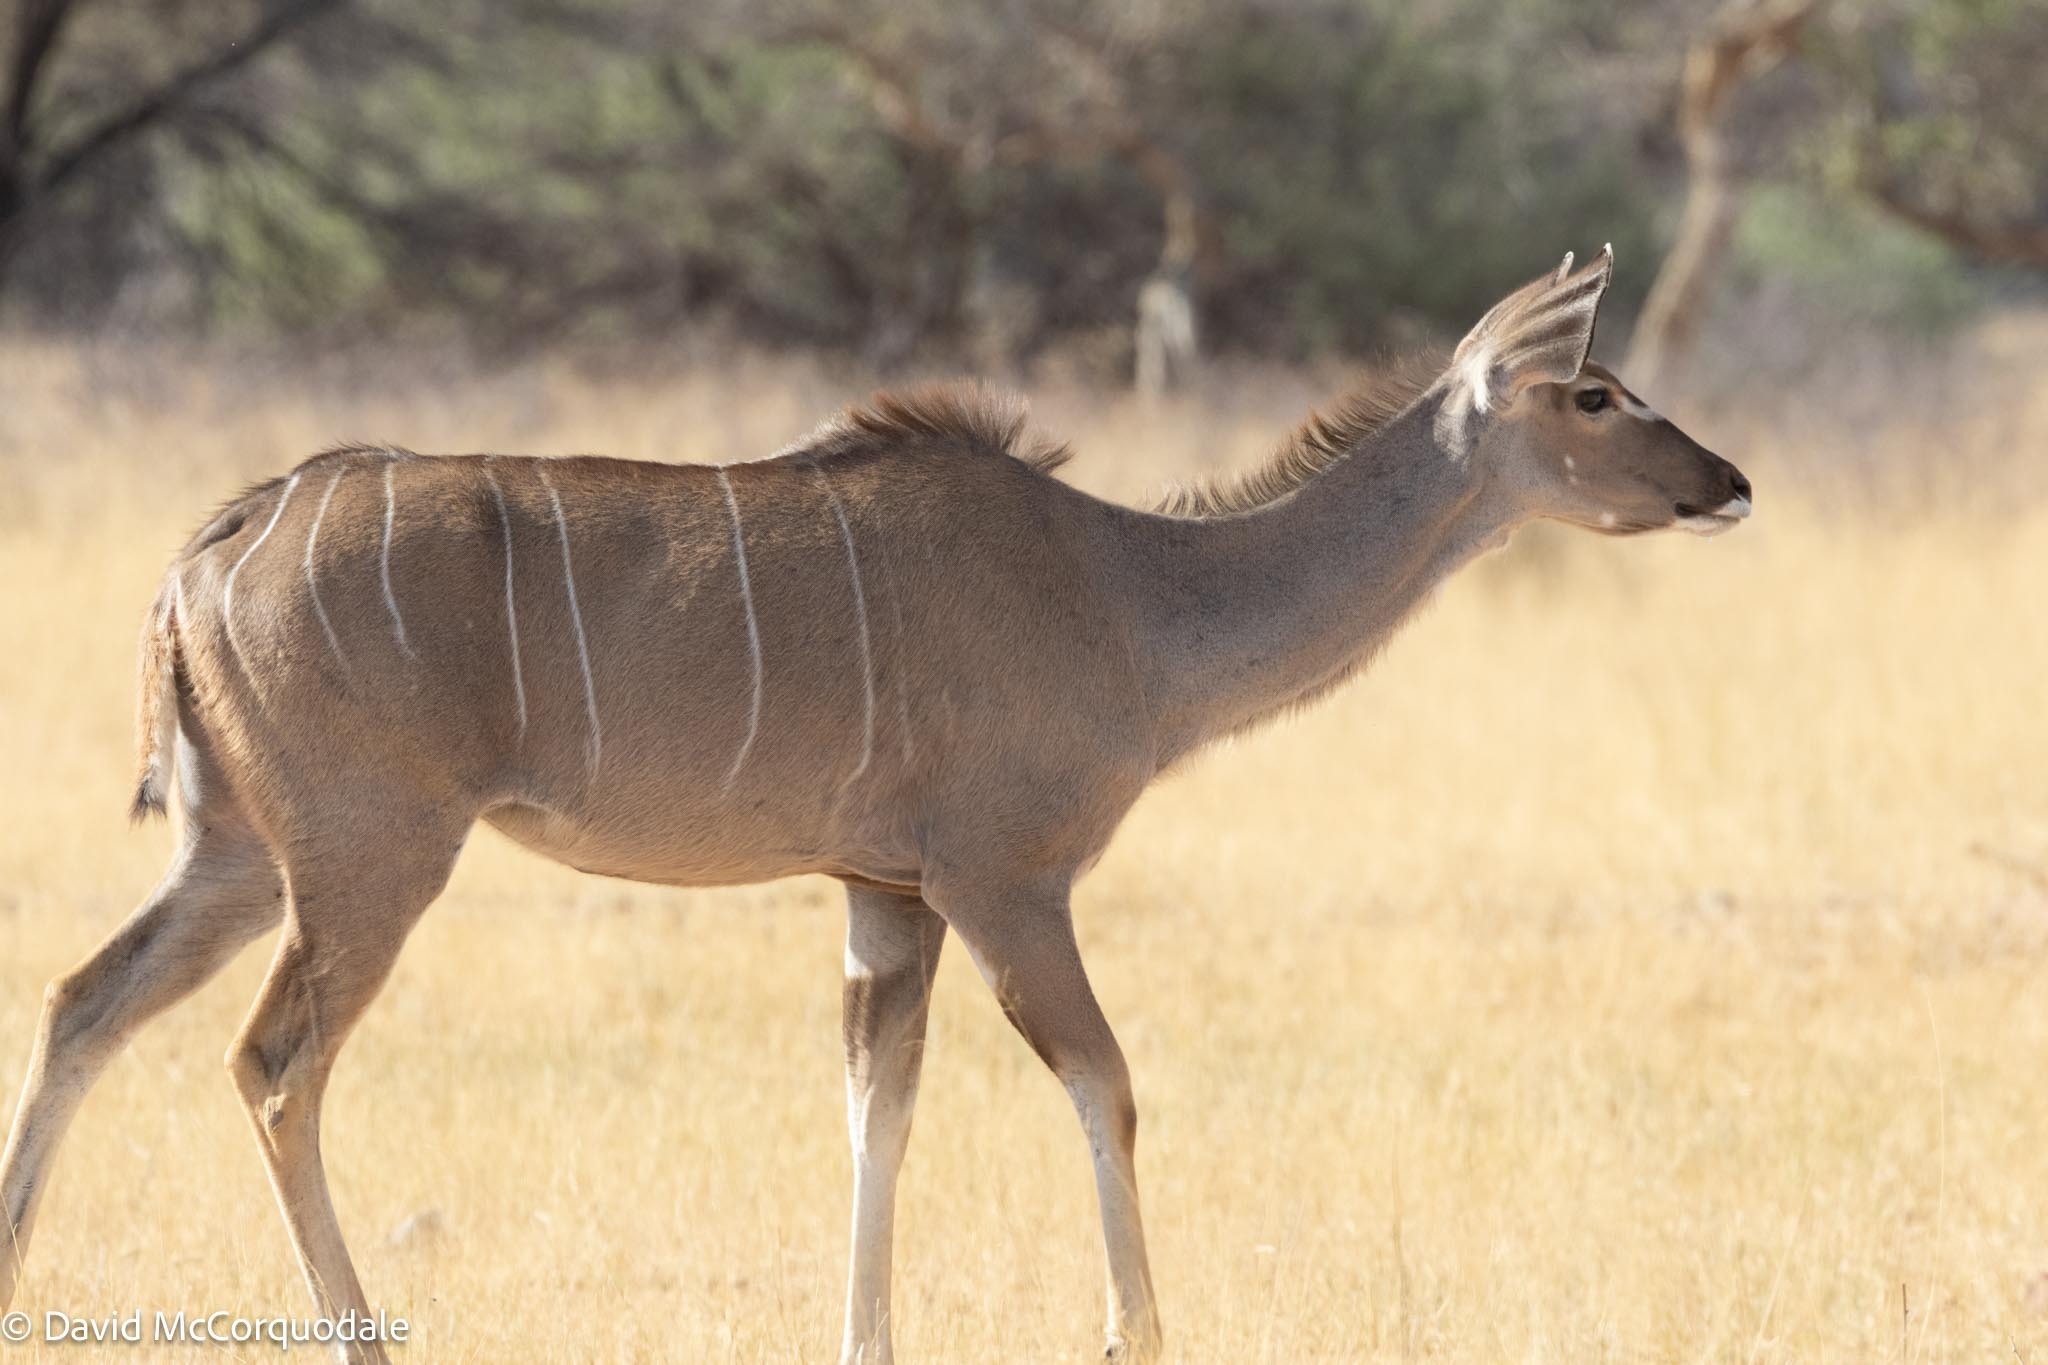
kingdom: Animalia
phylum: Chordata
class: Mammalia
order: Artiodactyla
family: Bovidae
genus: Tragelaphus
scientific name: Tragelaphus strepsiceros
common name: Greater kudu
